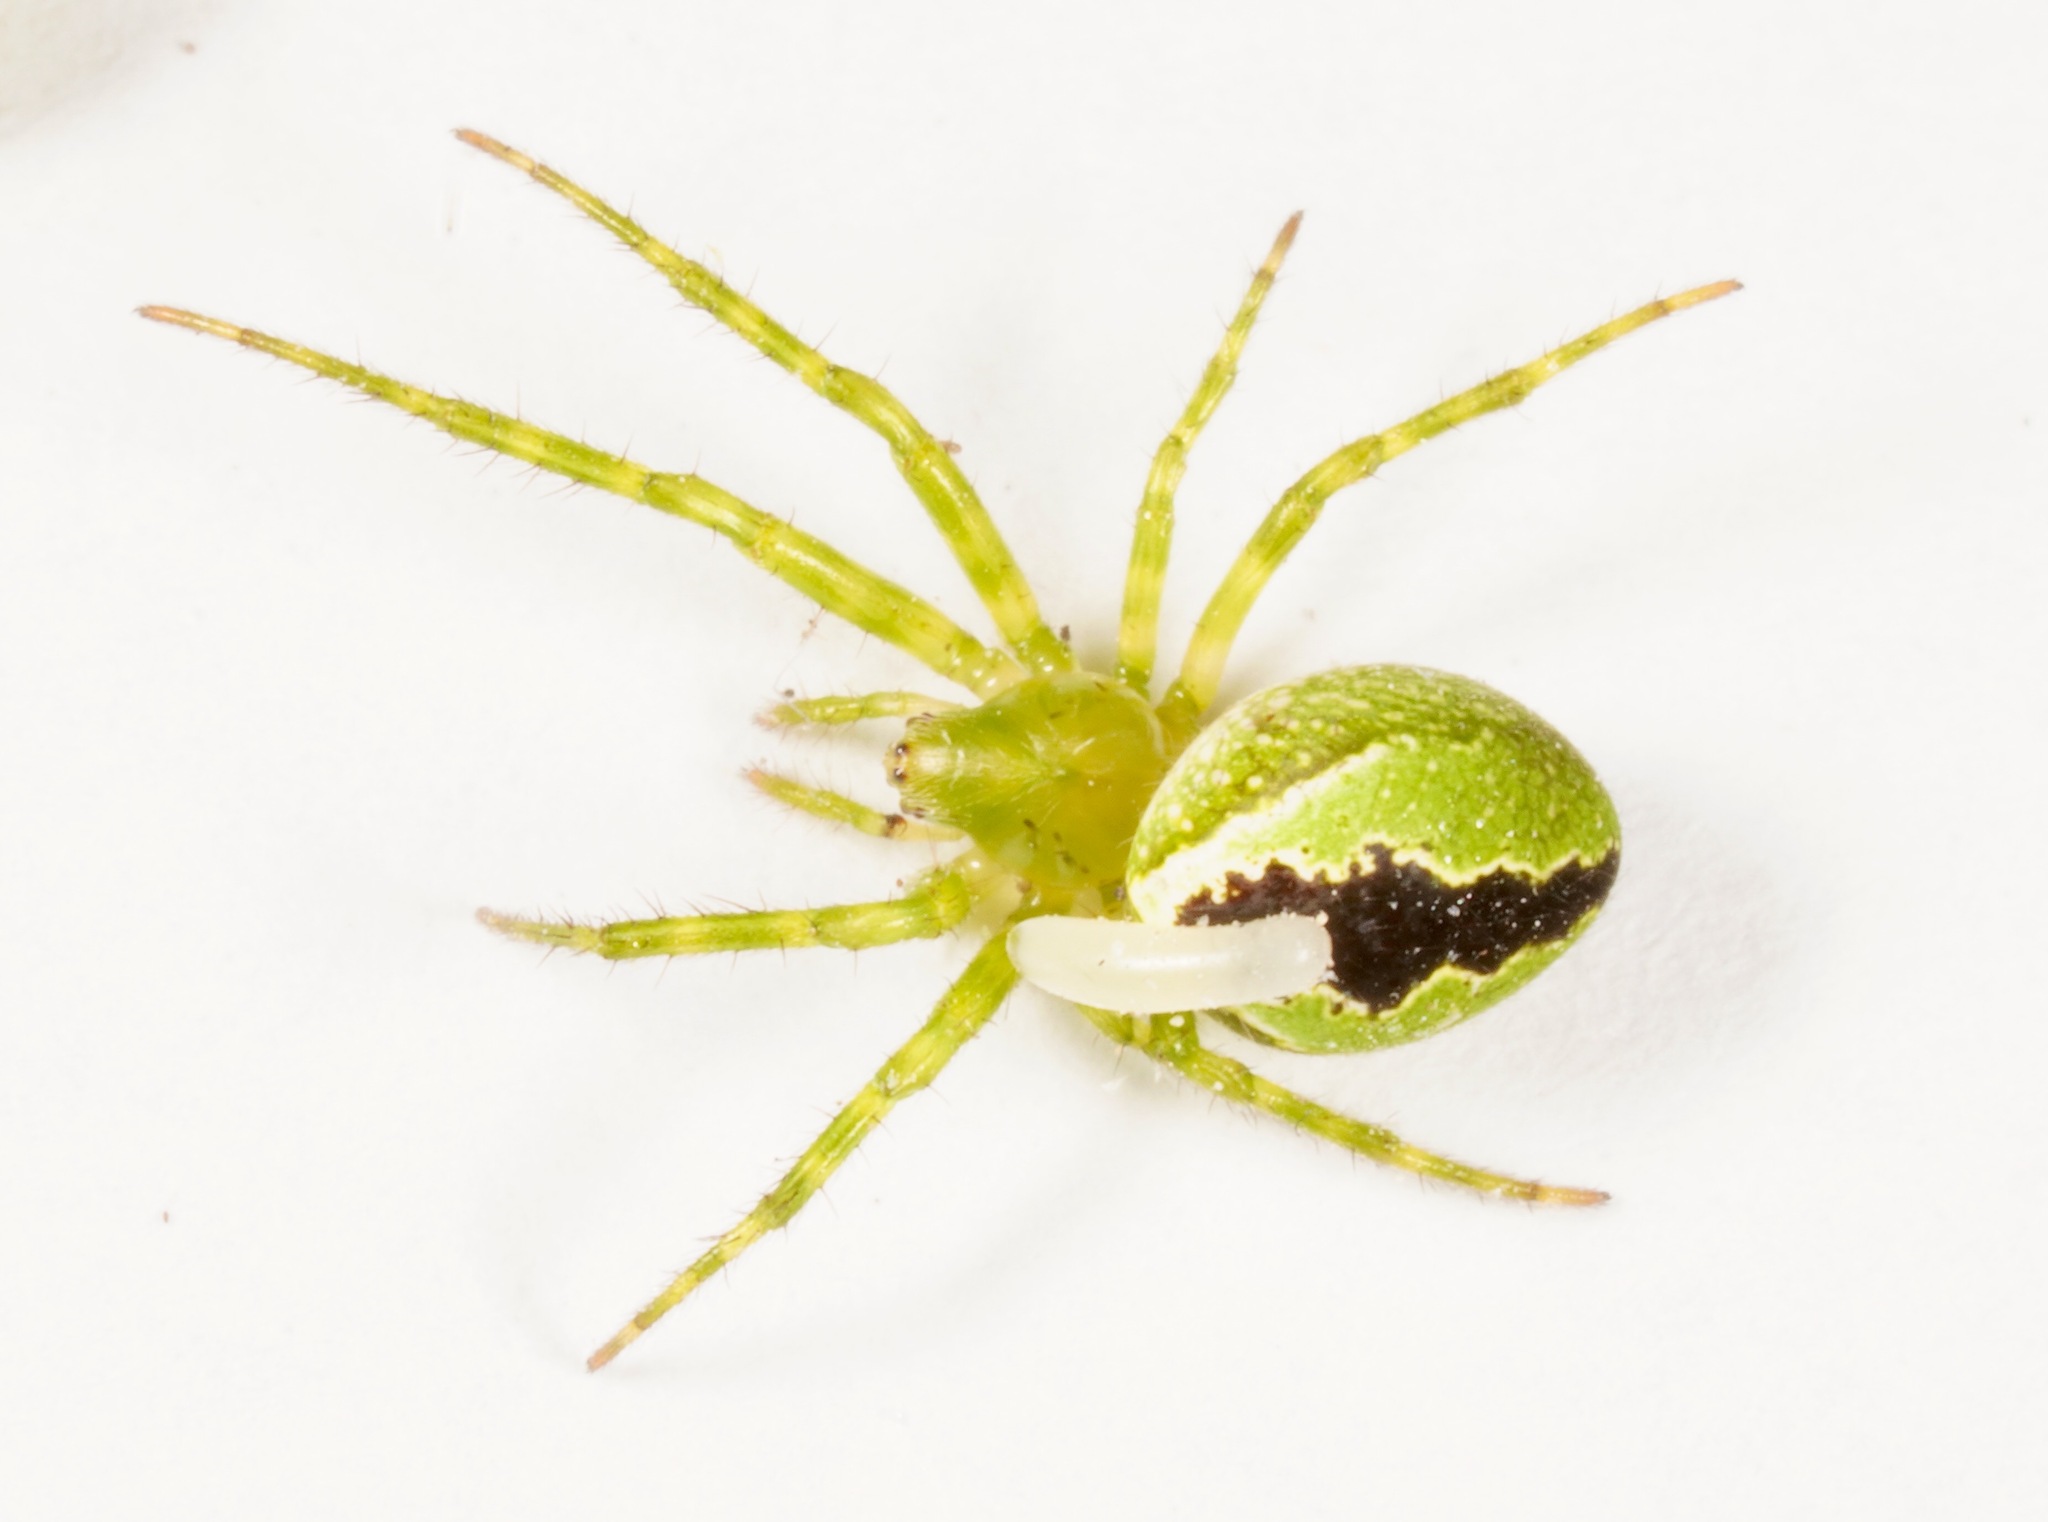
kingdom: Animalia
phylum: Arthropoda
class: Arachnida
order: Araneae
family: Araneidae
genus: Colaranea
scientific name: Colaranea melanoviridis
